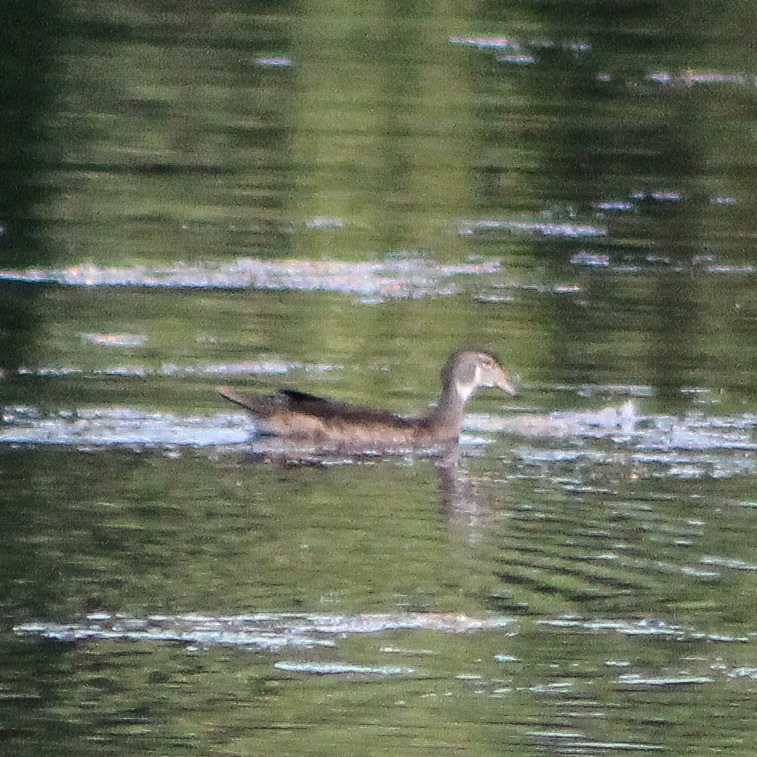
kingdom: Animalia
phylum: Chordata
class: Aves
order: Anseriformes
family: Anatidae
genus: Aix
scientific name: Aix sponsa
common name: Wood duck
